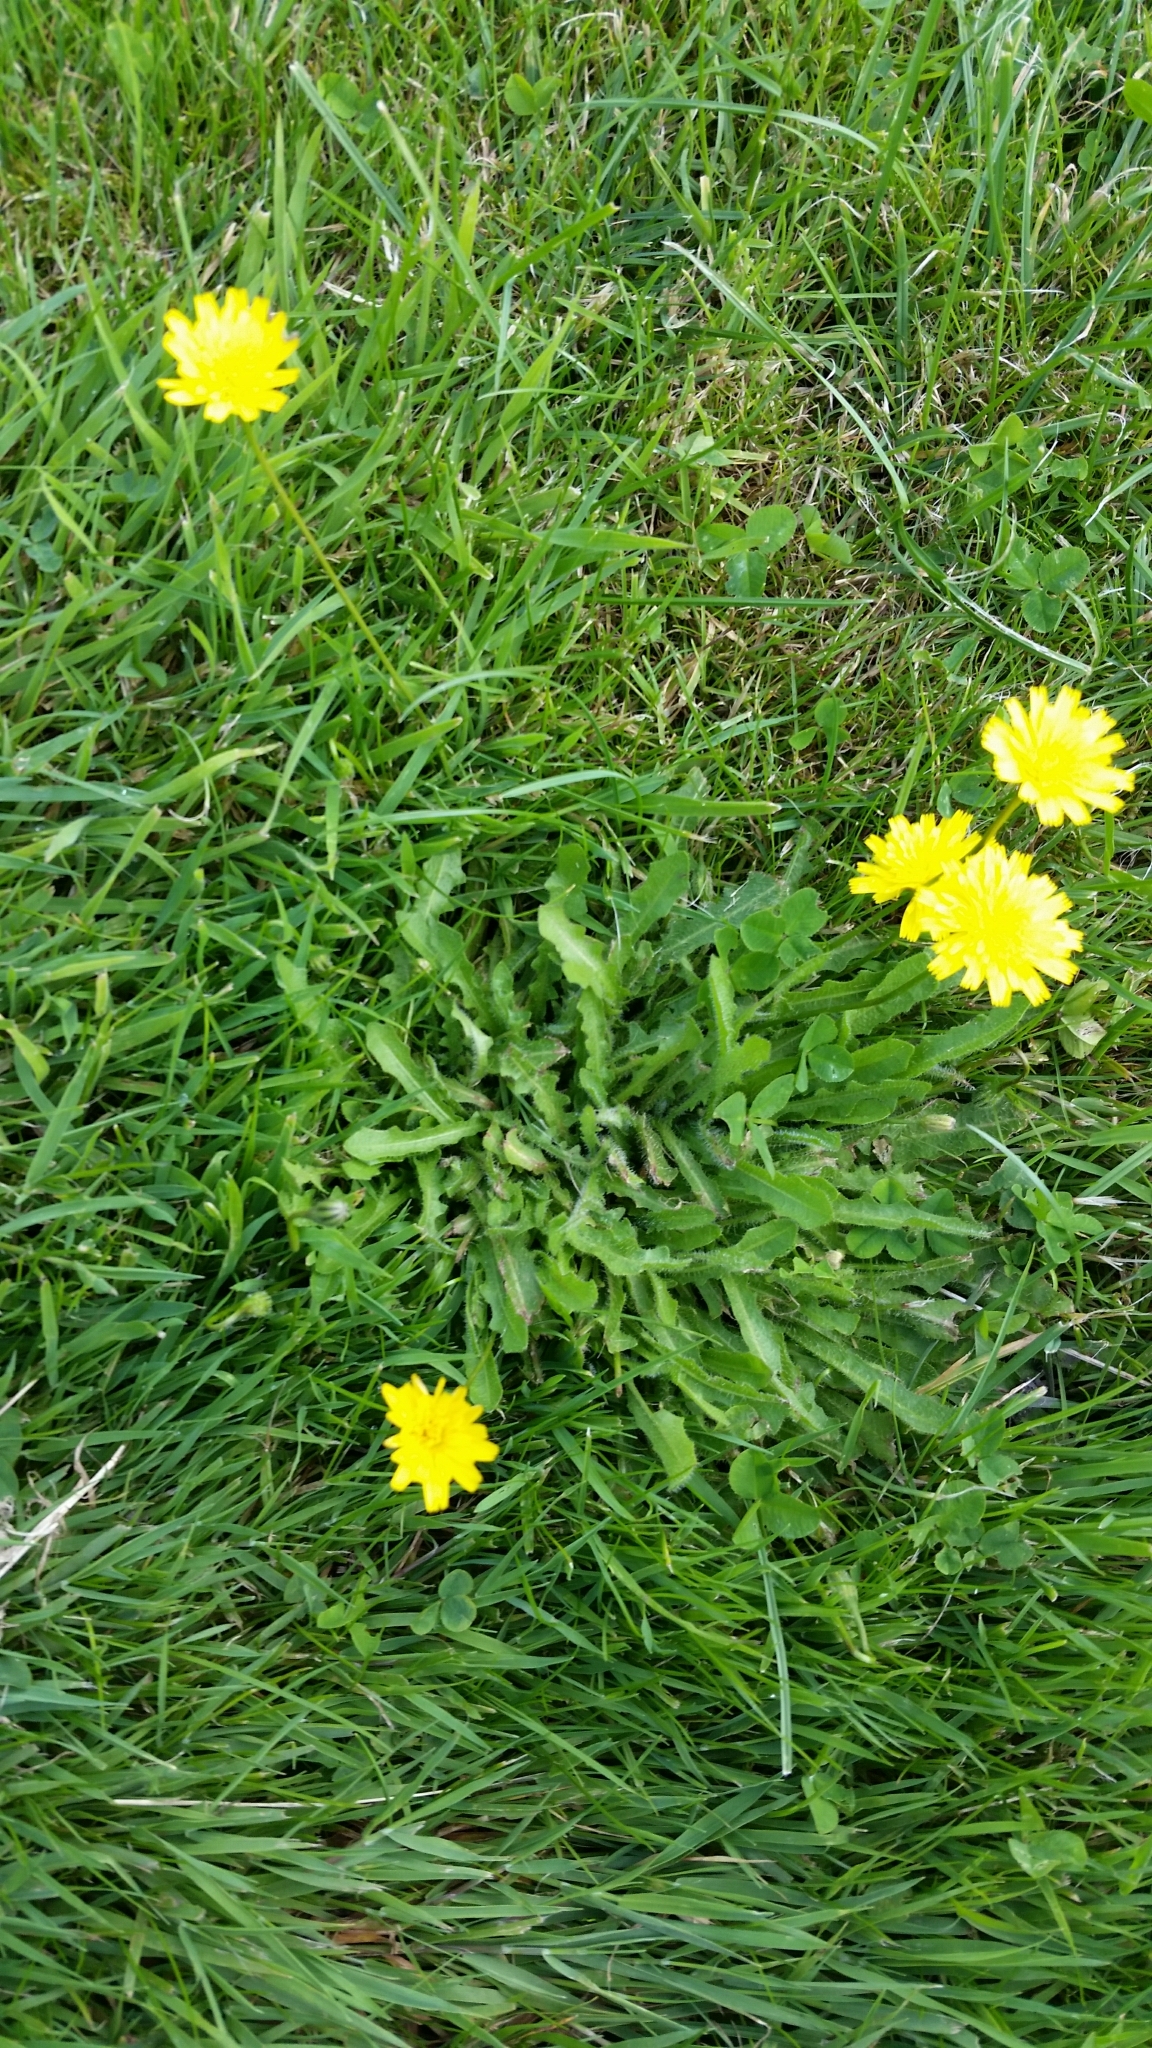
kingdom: Plantae
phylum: Tracheophyta
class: Magnoliopsida
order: Asterales
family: Asteraceae
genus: Hypochaeris
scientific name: Hypochaeris radicata
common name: Flatweed
